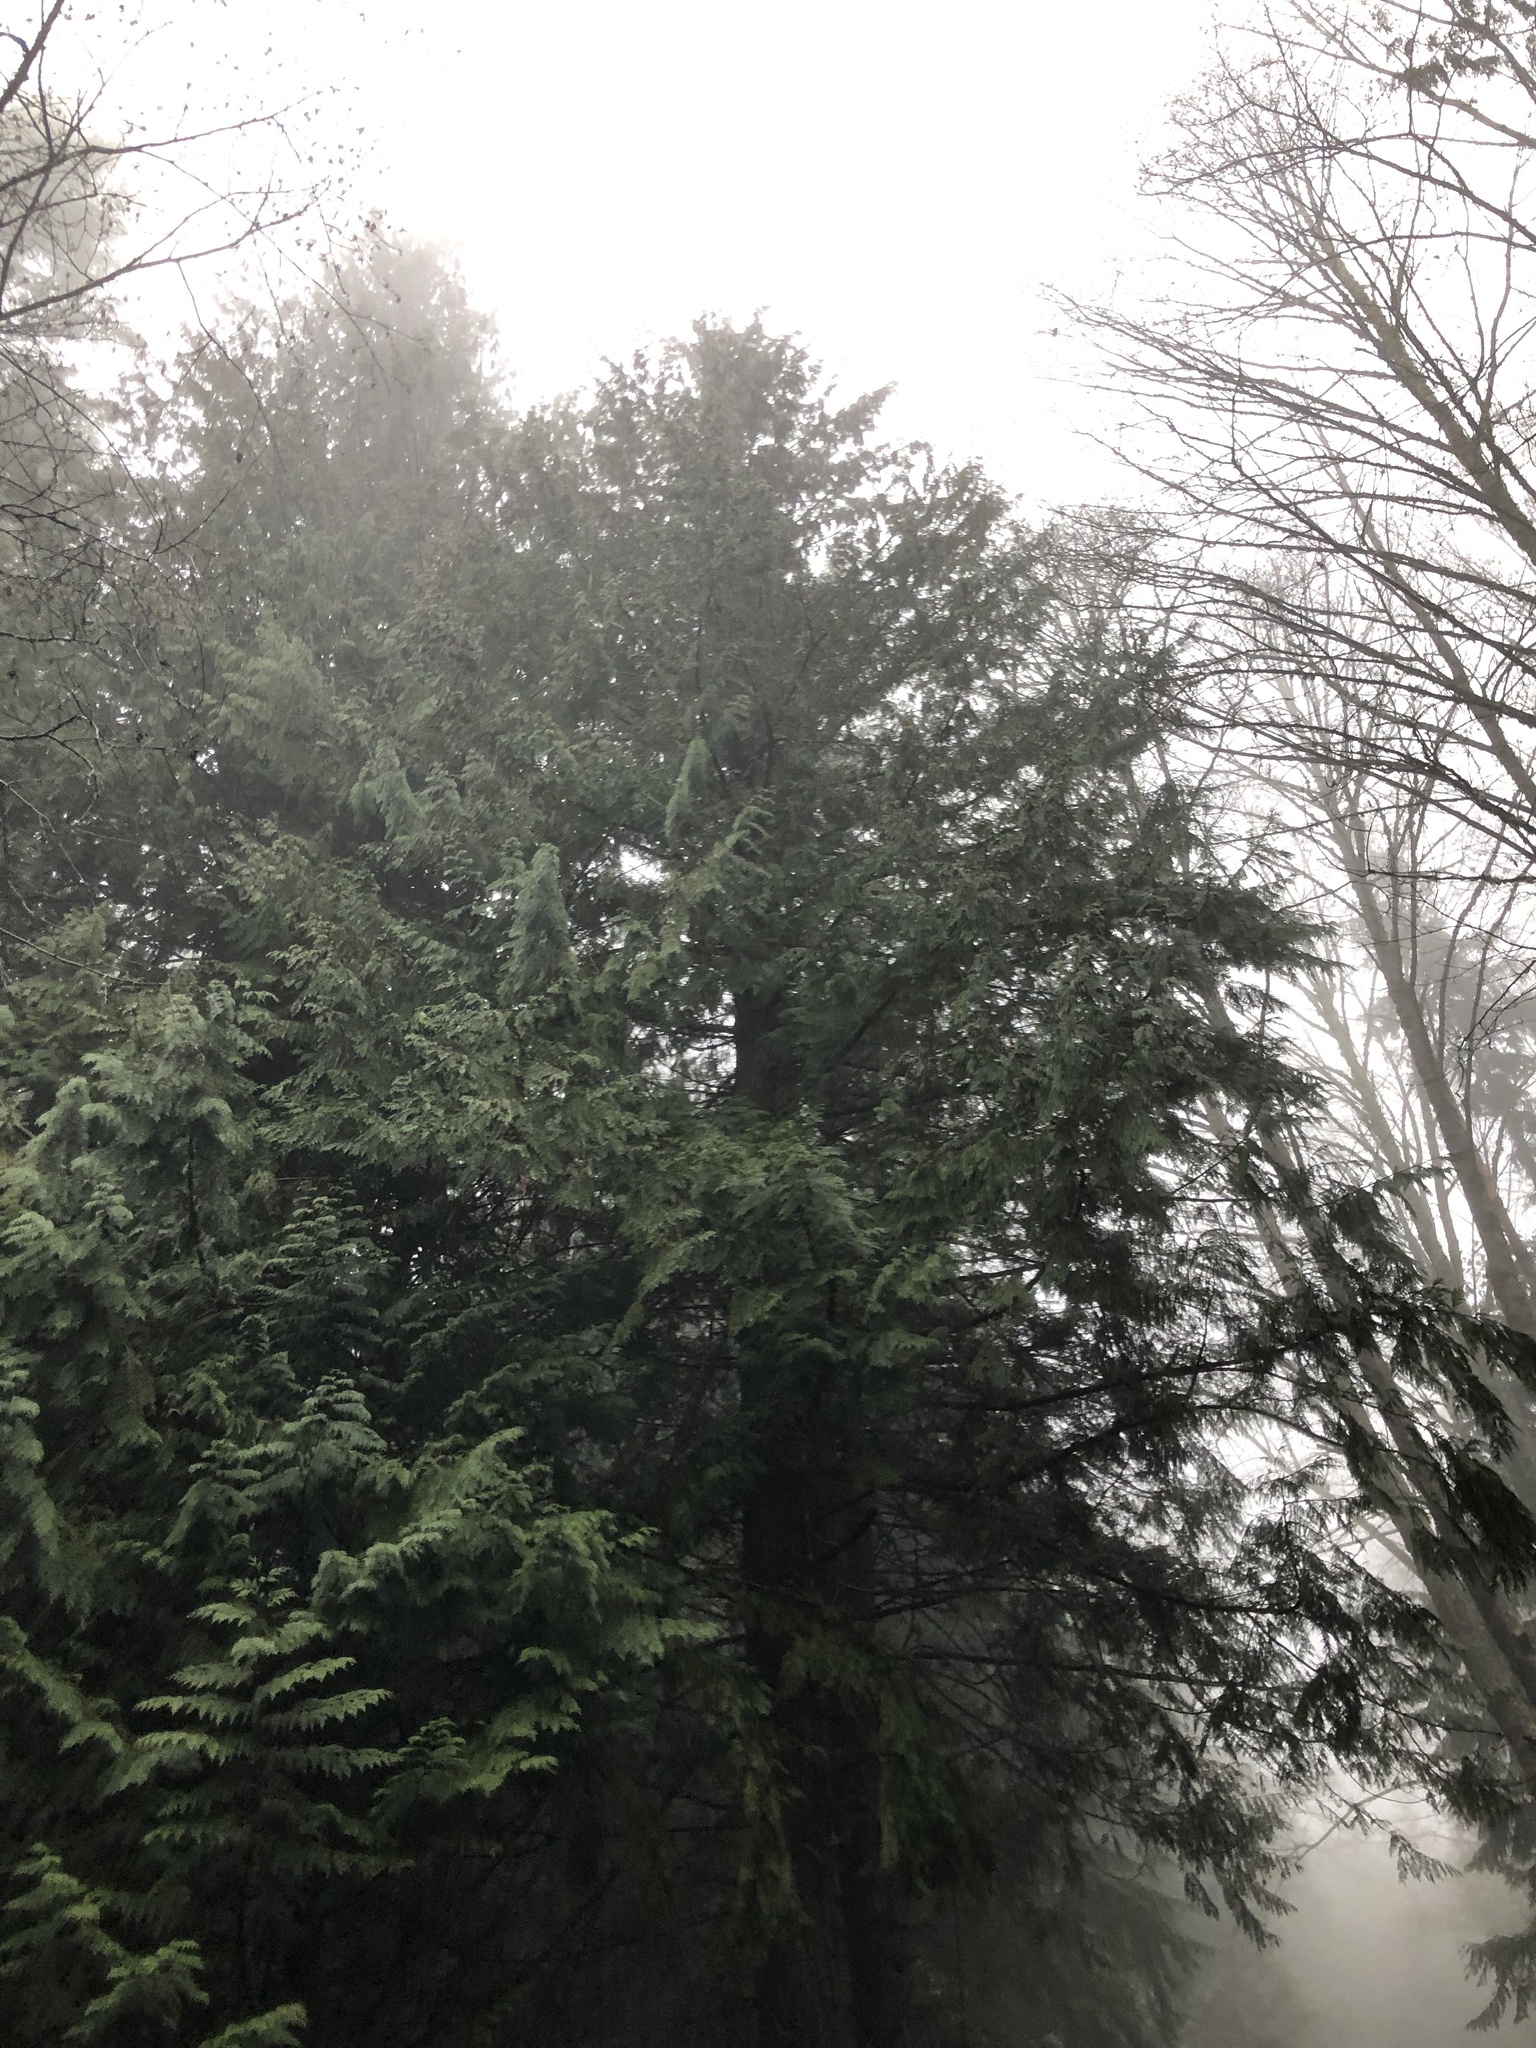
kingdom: Plantae
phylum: Tracheophyta
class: Pinopsida
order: Pinales
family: Cupressaceae
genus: Thuja
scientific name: Thuja plicata
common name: Western red-cedar
